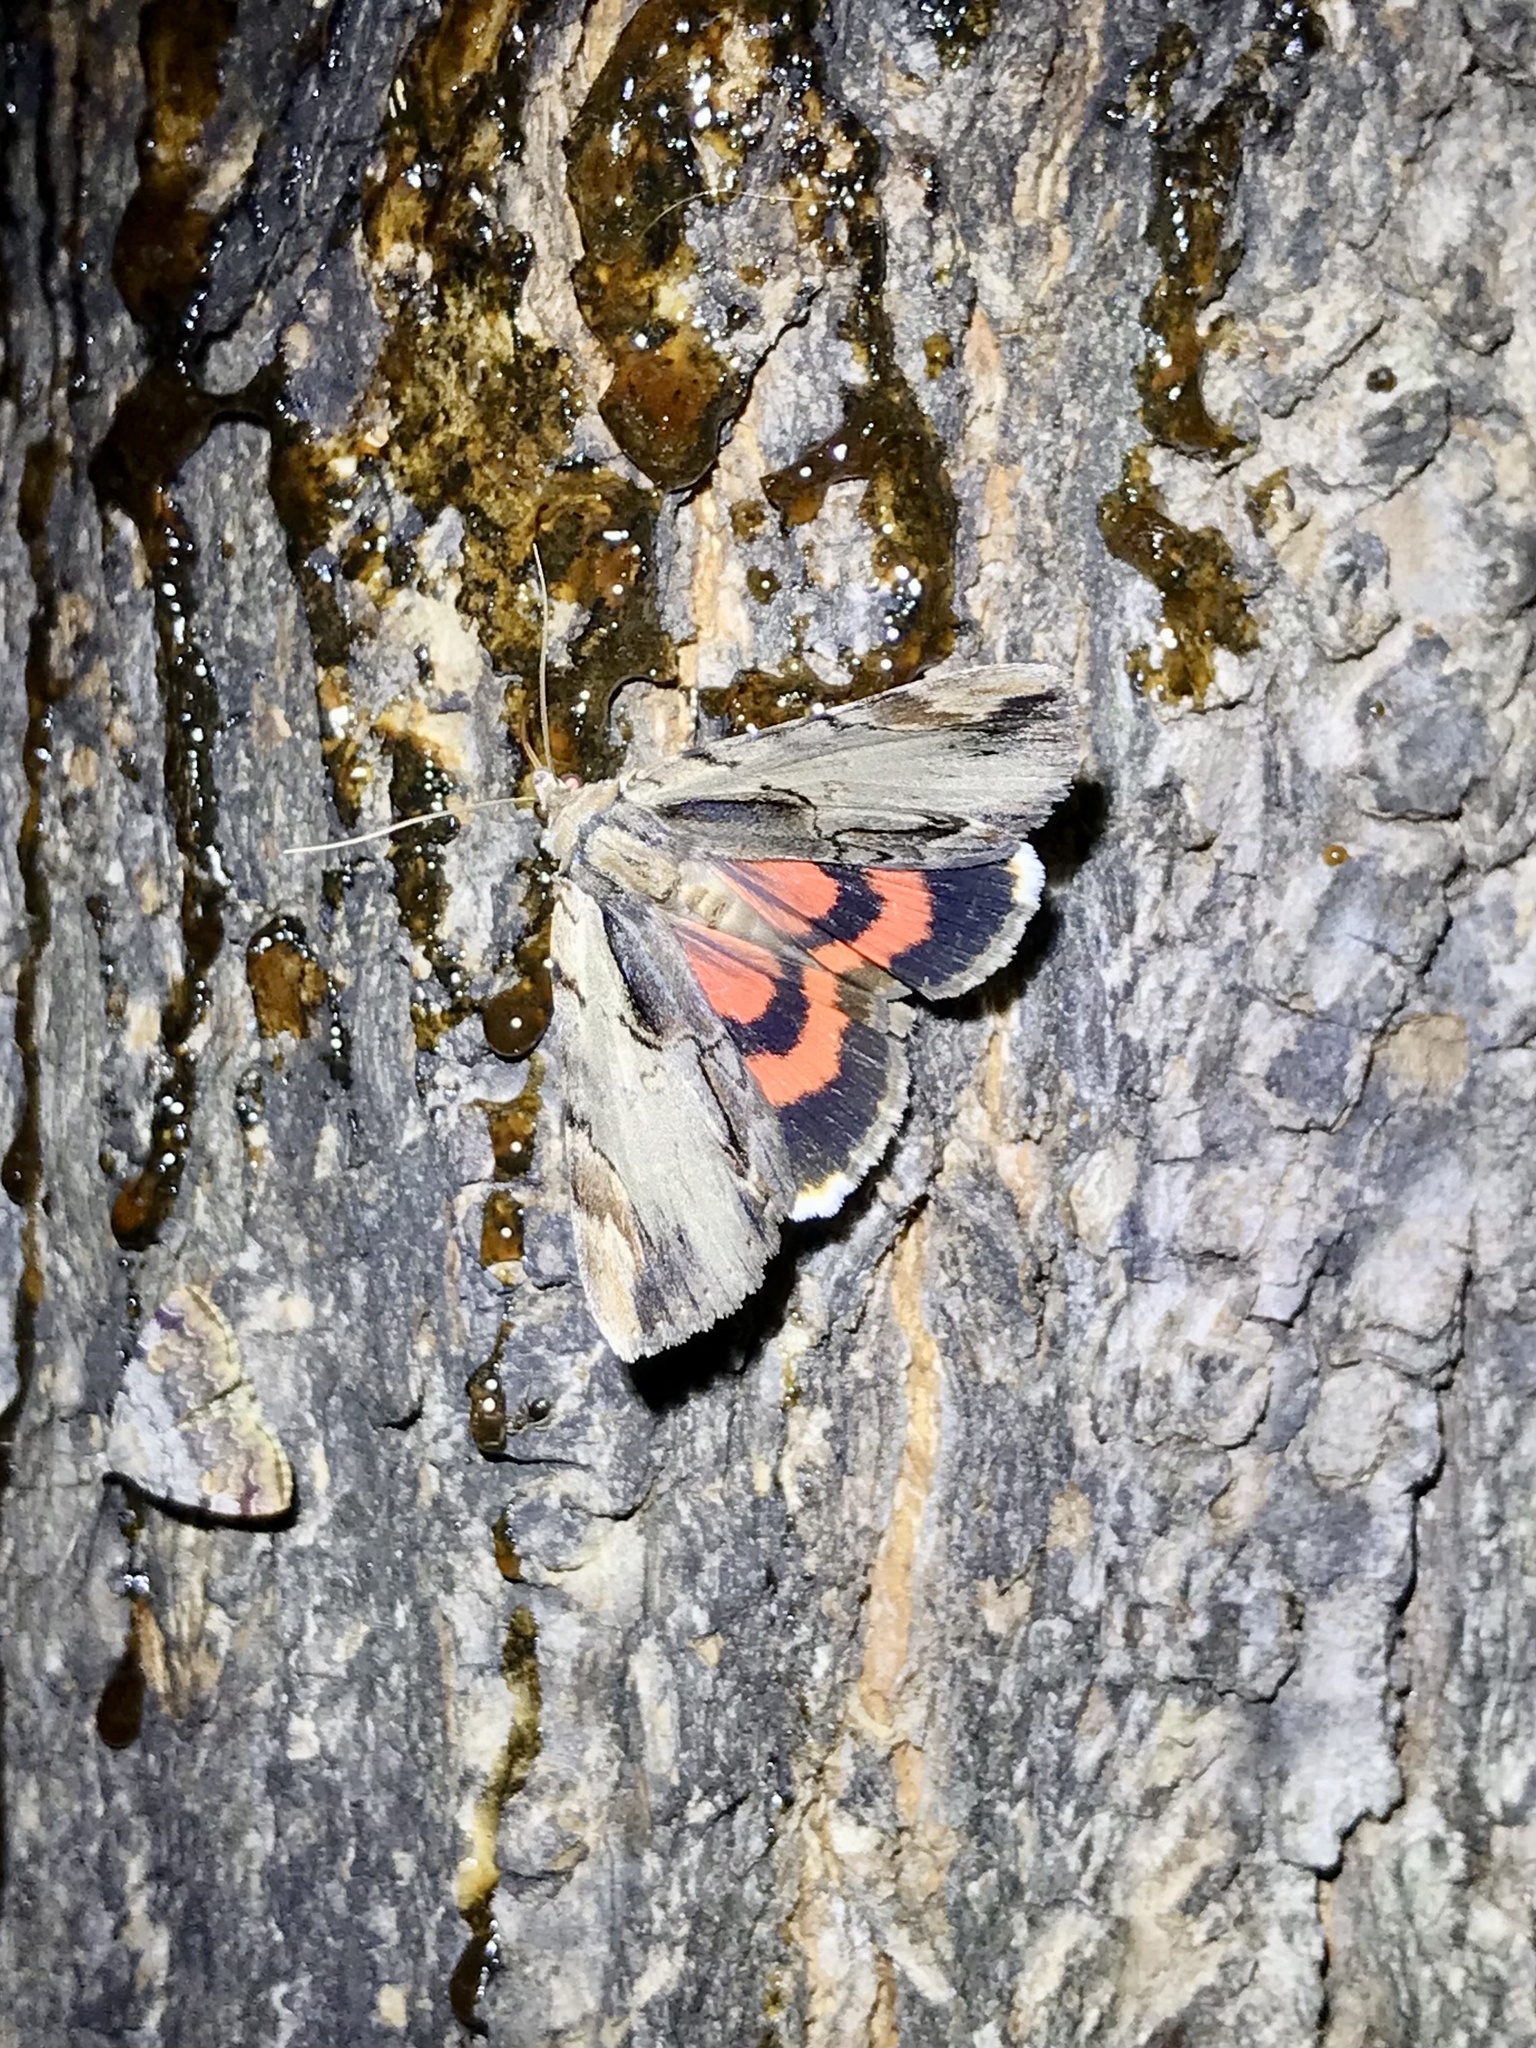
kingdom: Animalia
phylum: Arthropoda
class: Insecta
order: Lepidoptera
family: Erebidae
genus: Catocala
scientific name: Catocala ultronia
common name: Ultronia underwing
